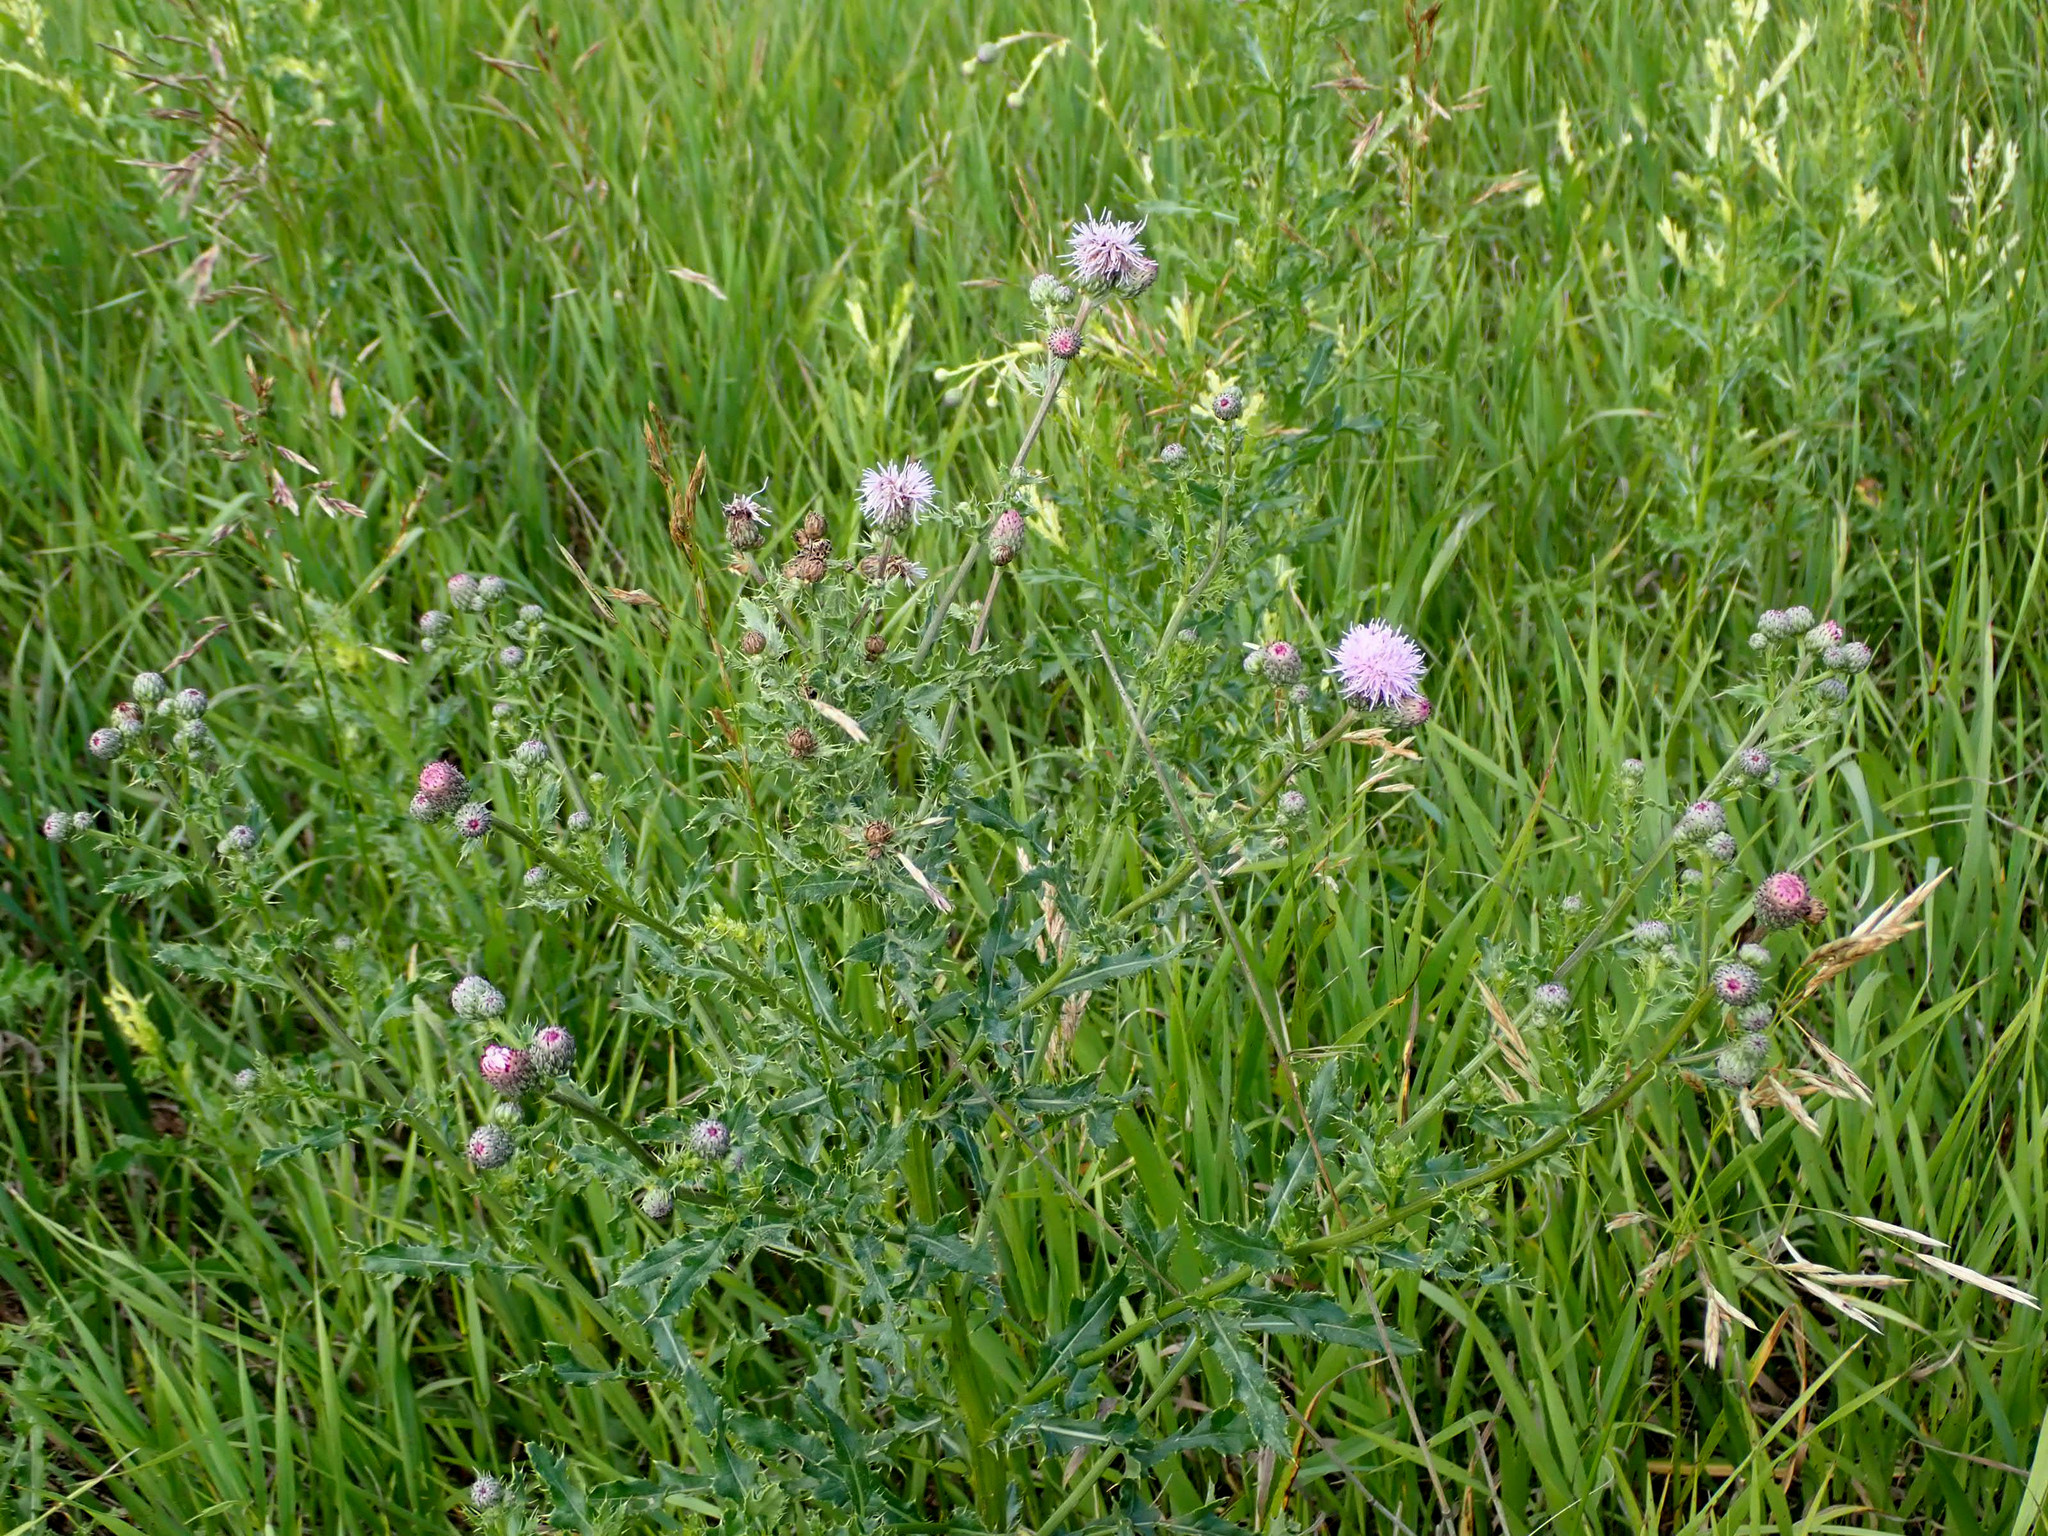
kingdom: Plantae
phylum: Tracheophyta
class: Magnoliopsida
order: Asterales
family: Asteraceae
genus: Cirsium
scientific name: Cirsium arvense
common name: Creeping thistle
